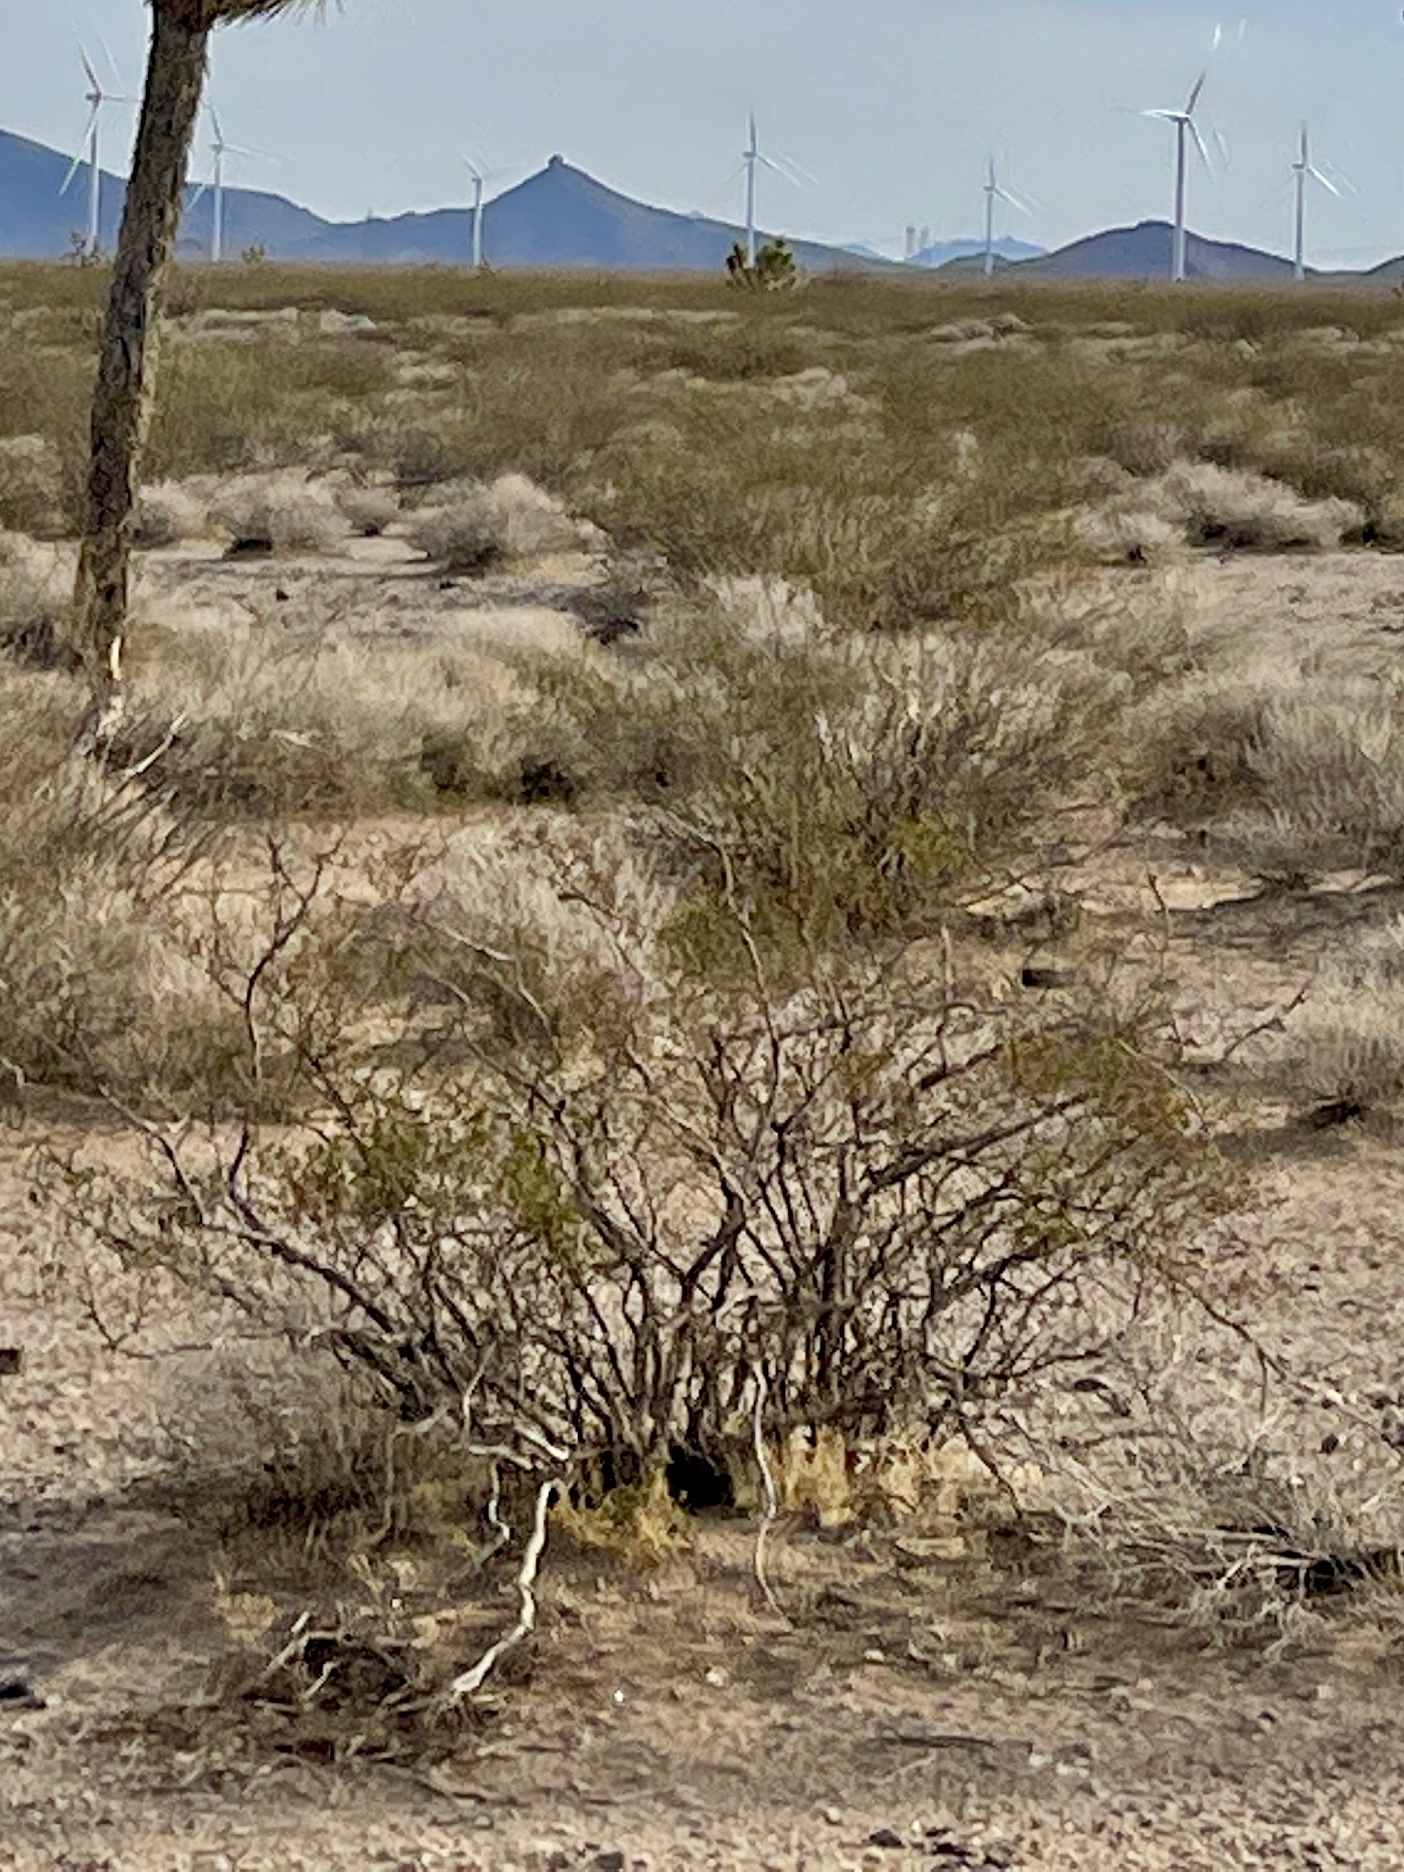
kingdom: Plantae
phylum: Tracheophyta
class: Magnoliopsida
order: Zygophyllales
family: Zygophyllaceae
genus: Larrea
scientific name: Larrea tridentata
